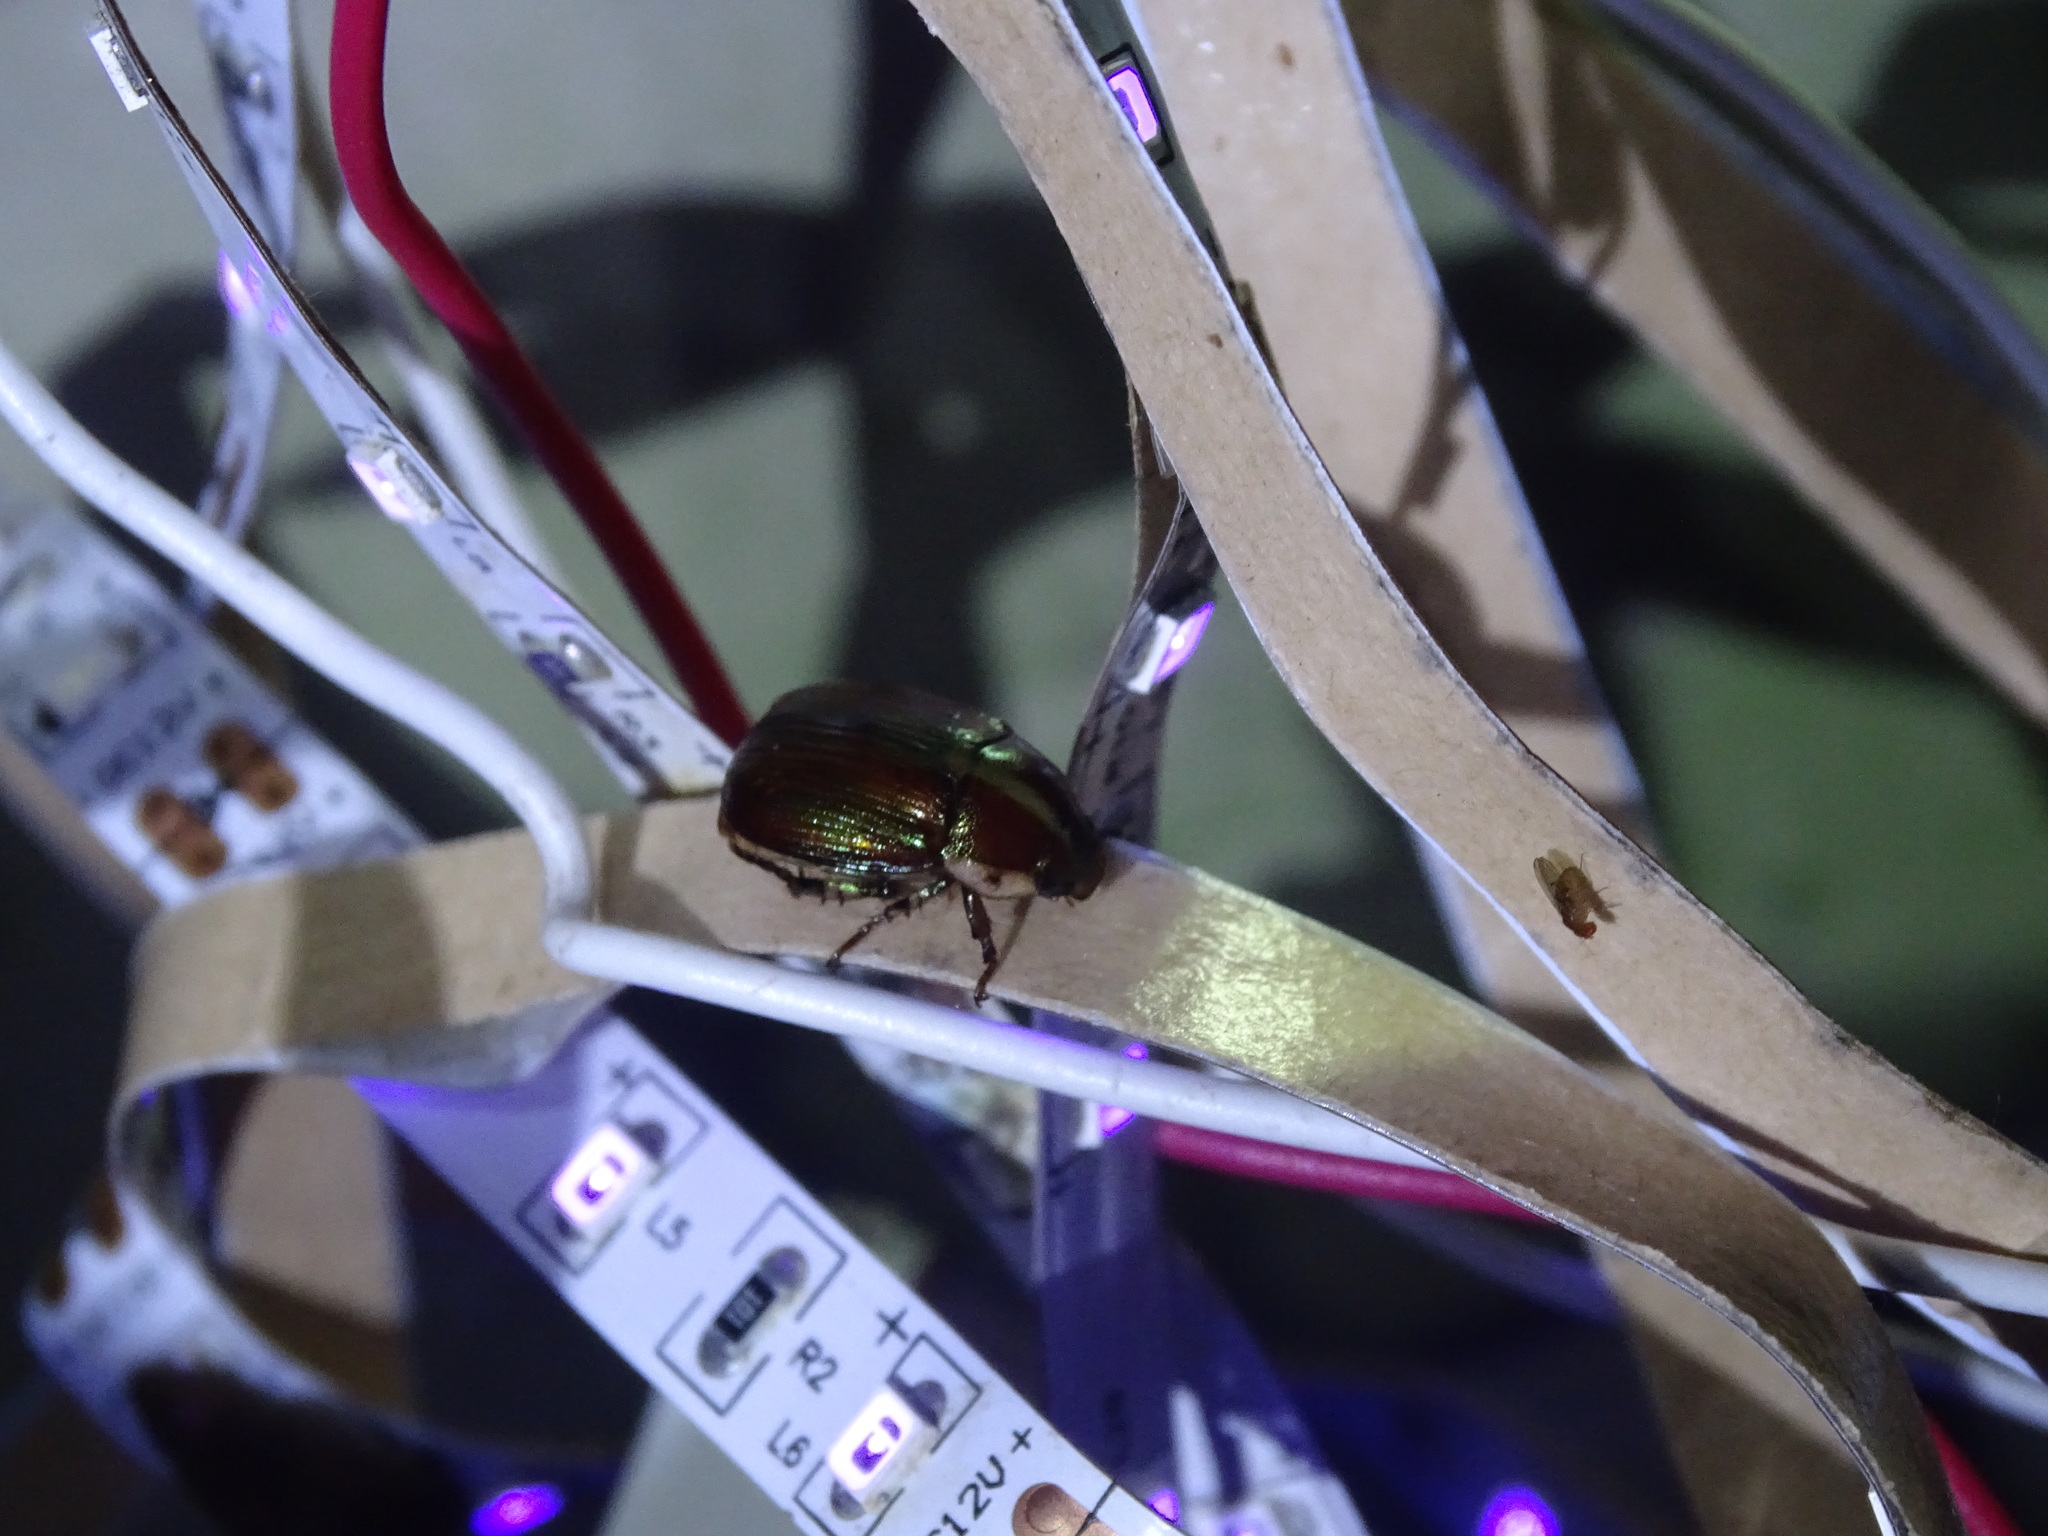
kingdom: Animalia
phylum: Arthropoda
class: Insecta
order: Coleoptera
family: Scarabaeidae
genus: Callistethus
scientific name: Callistethus marginatus
